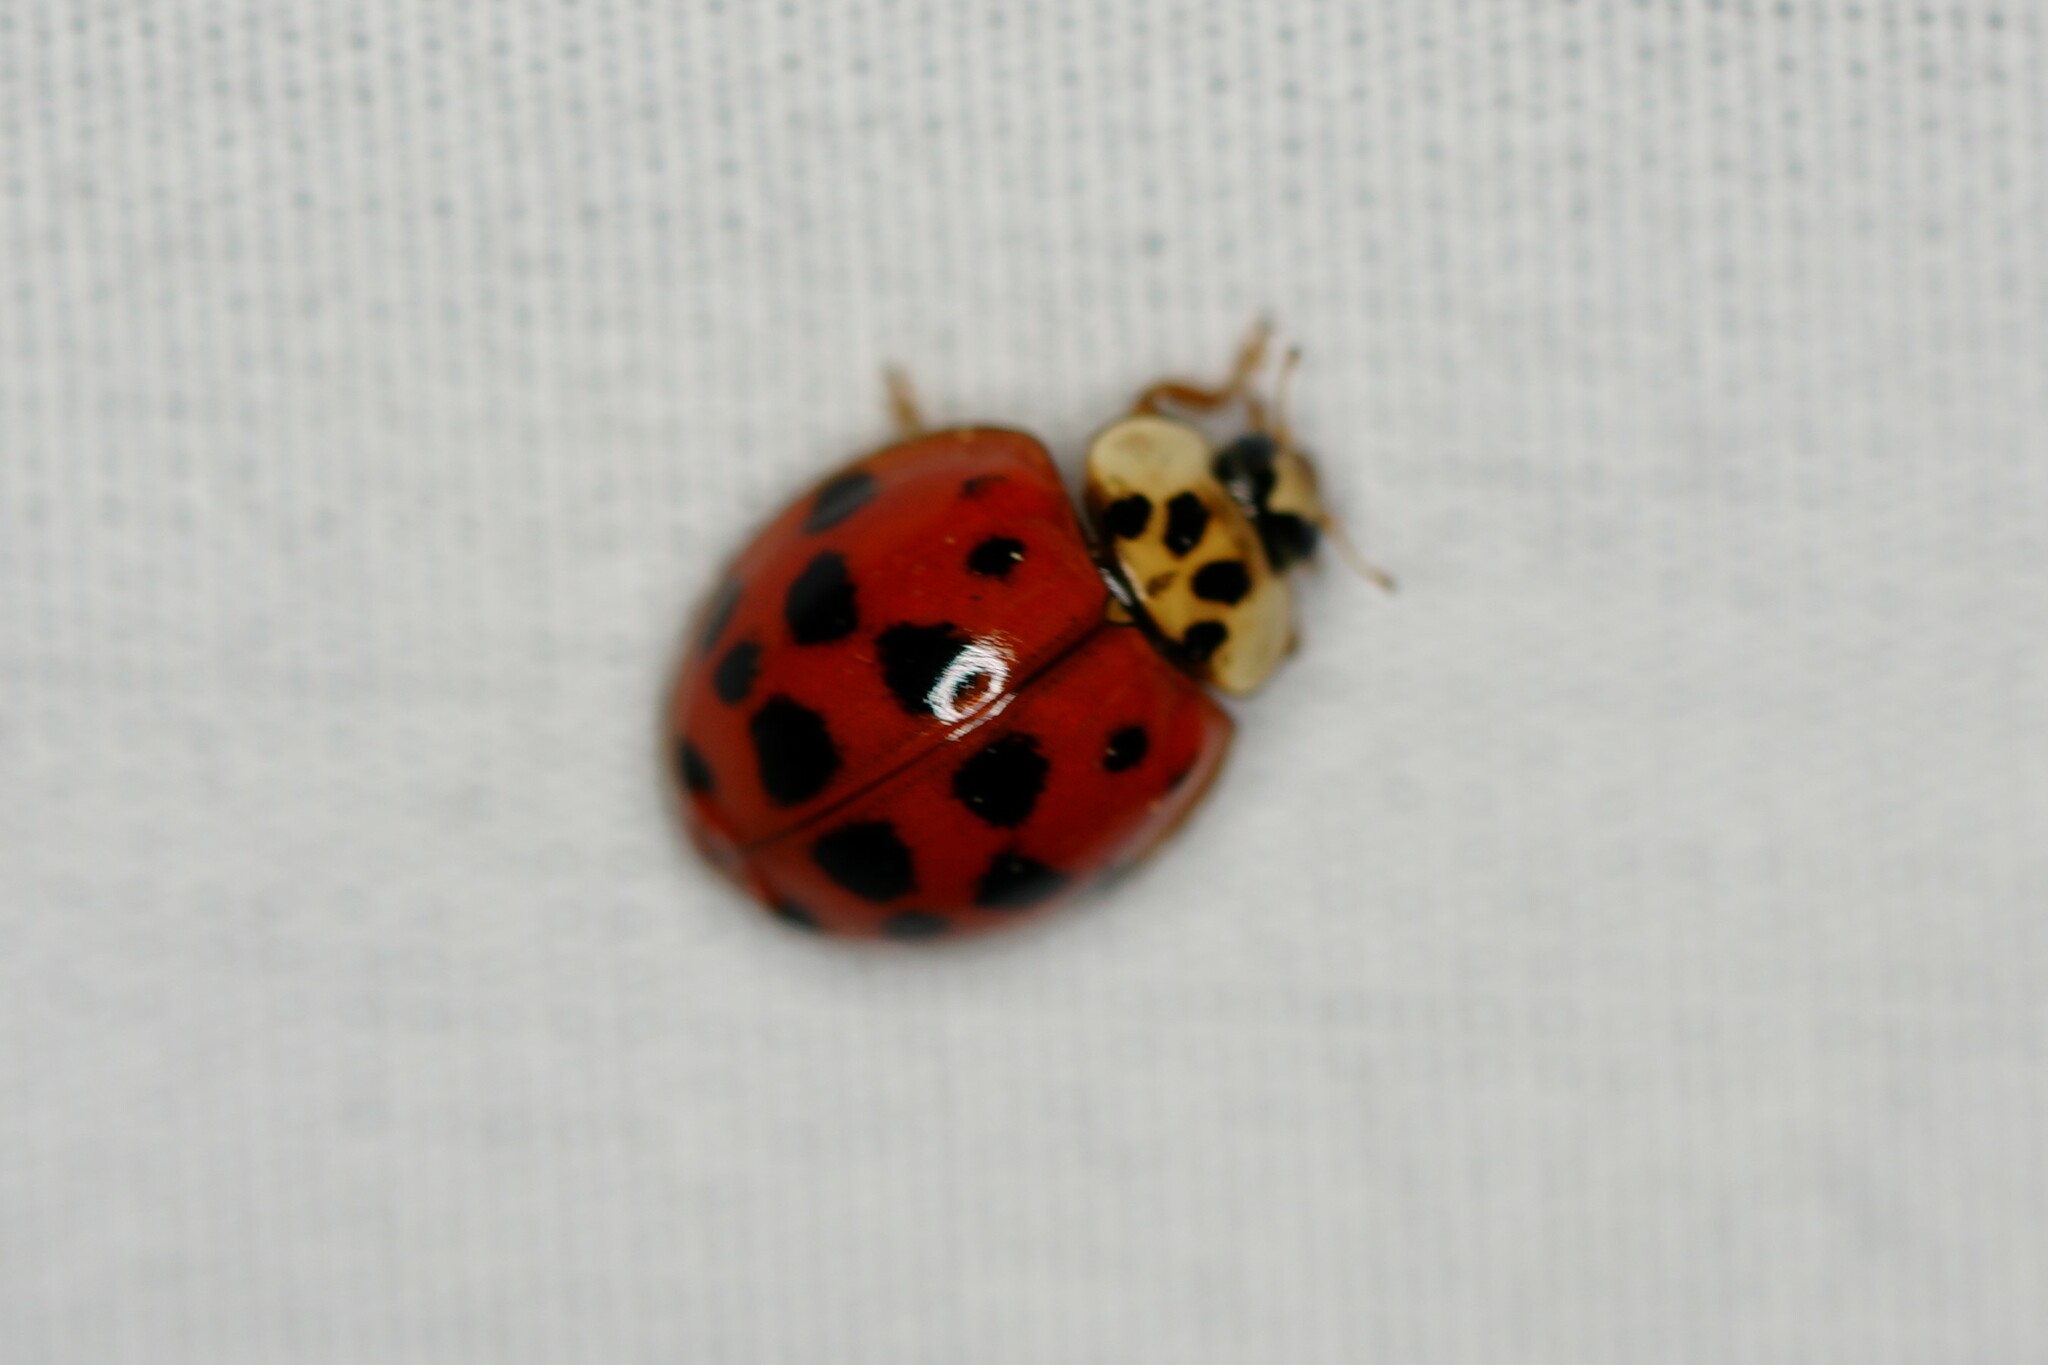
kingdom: Animalia
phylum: Arthropoda
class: Insecta
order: Coleoptera
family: Coccinellidae
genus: Harmonia
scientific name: Harmonia axyridis
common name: Harlequin ladybird
